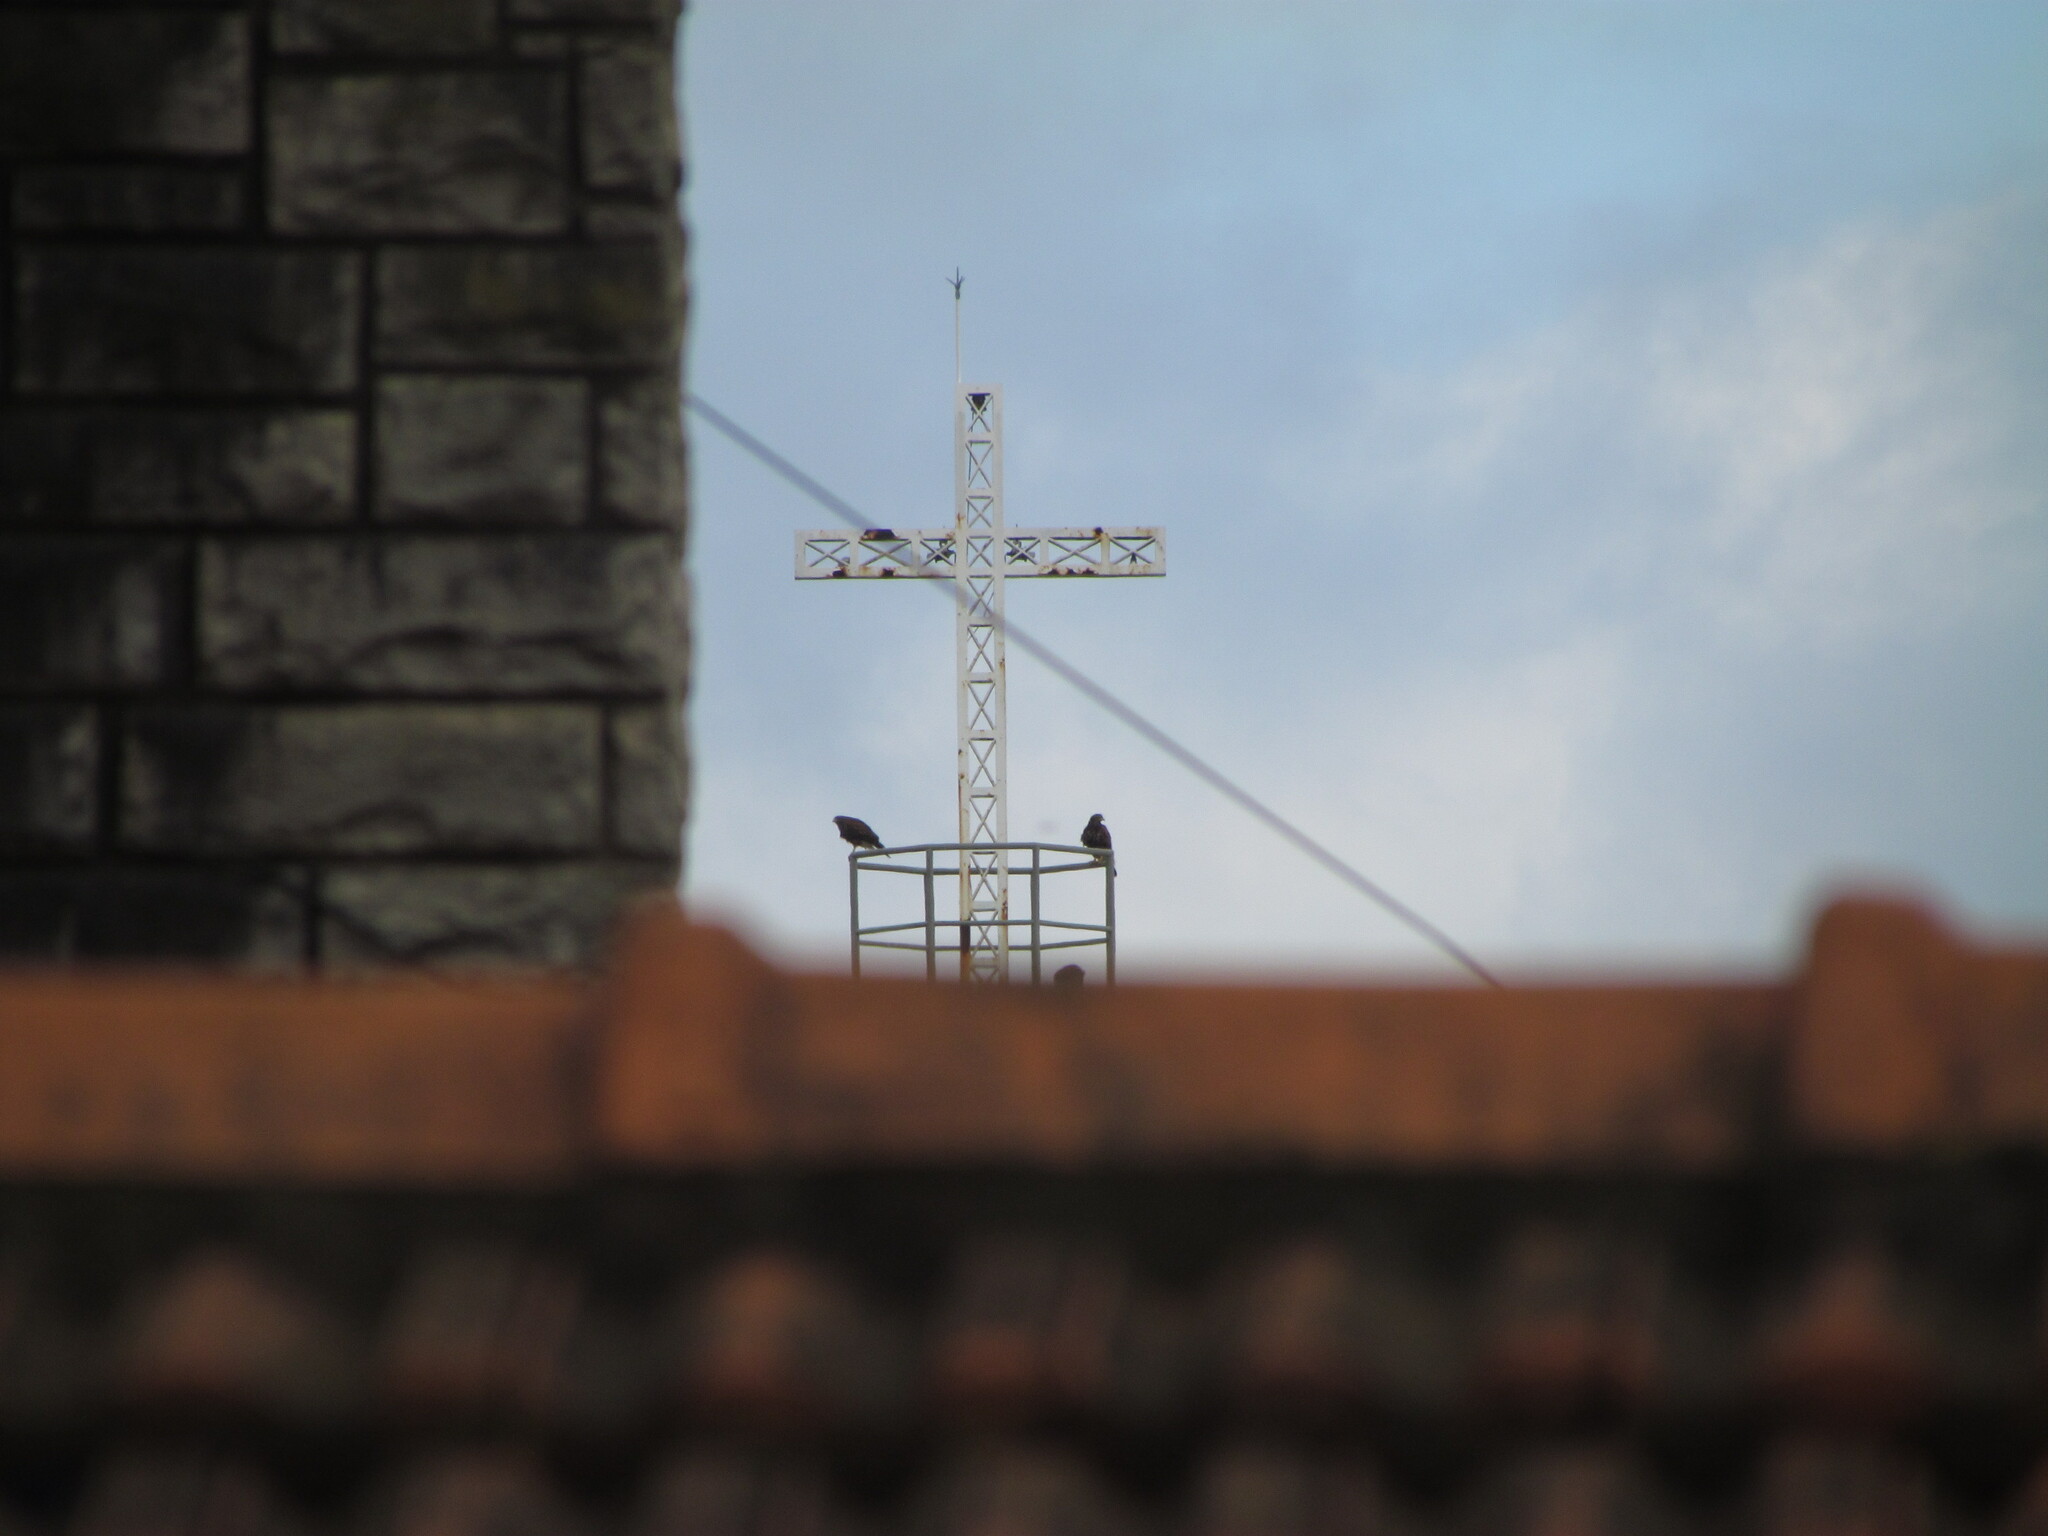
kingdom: Animalia
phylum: Chordata
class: Aves
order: Accipitriformes
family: Accipitridae
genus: Parabuteo
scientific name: Parabuteo unicinctus
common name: Harris's hawk
